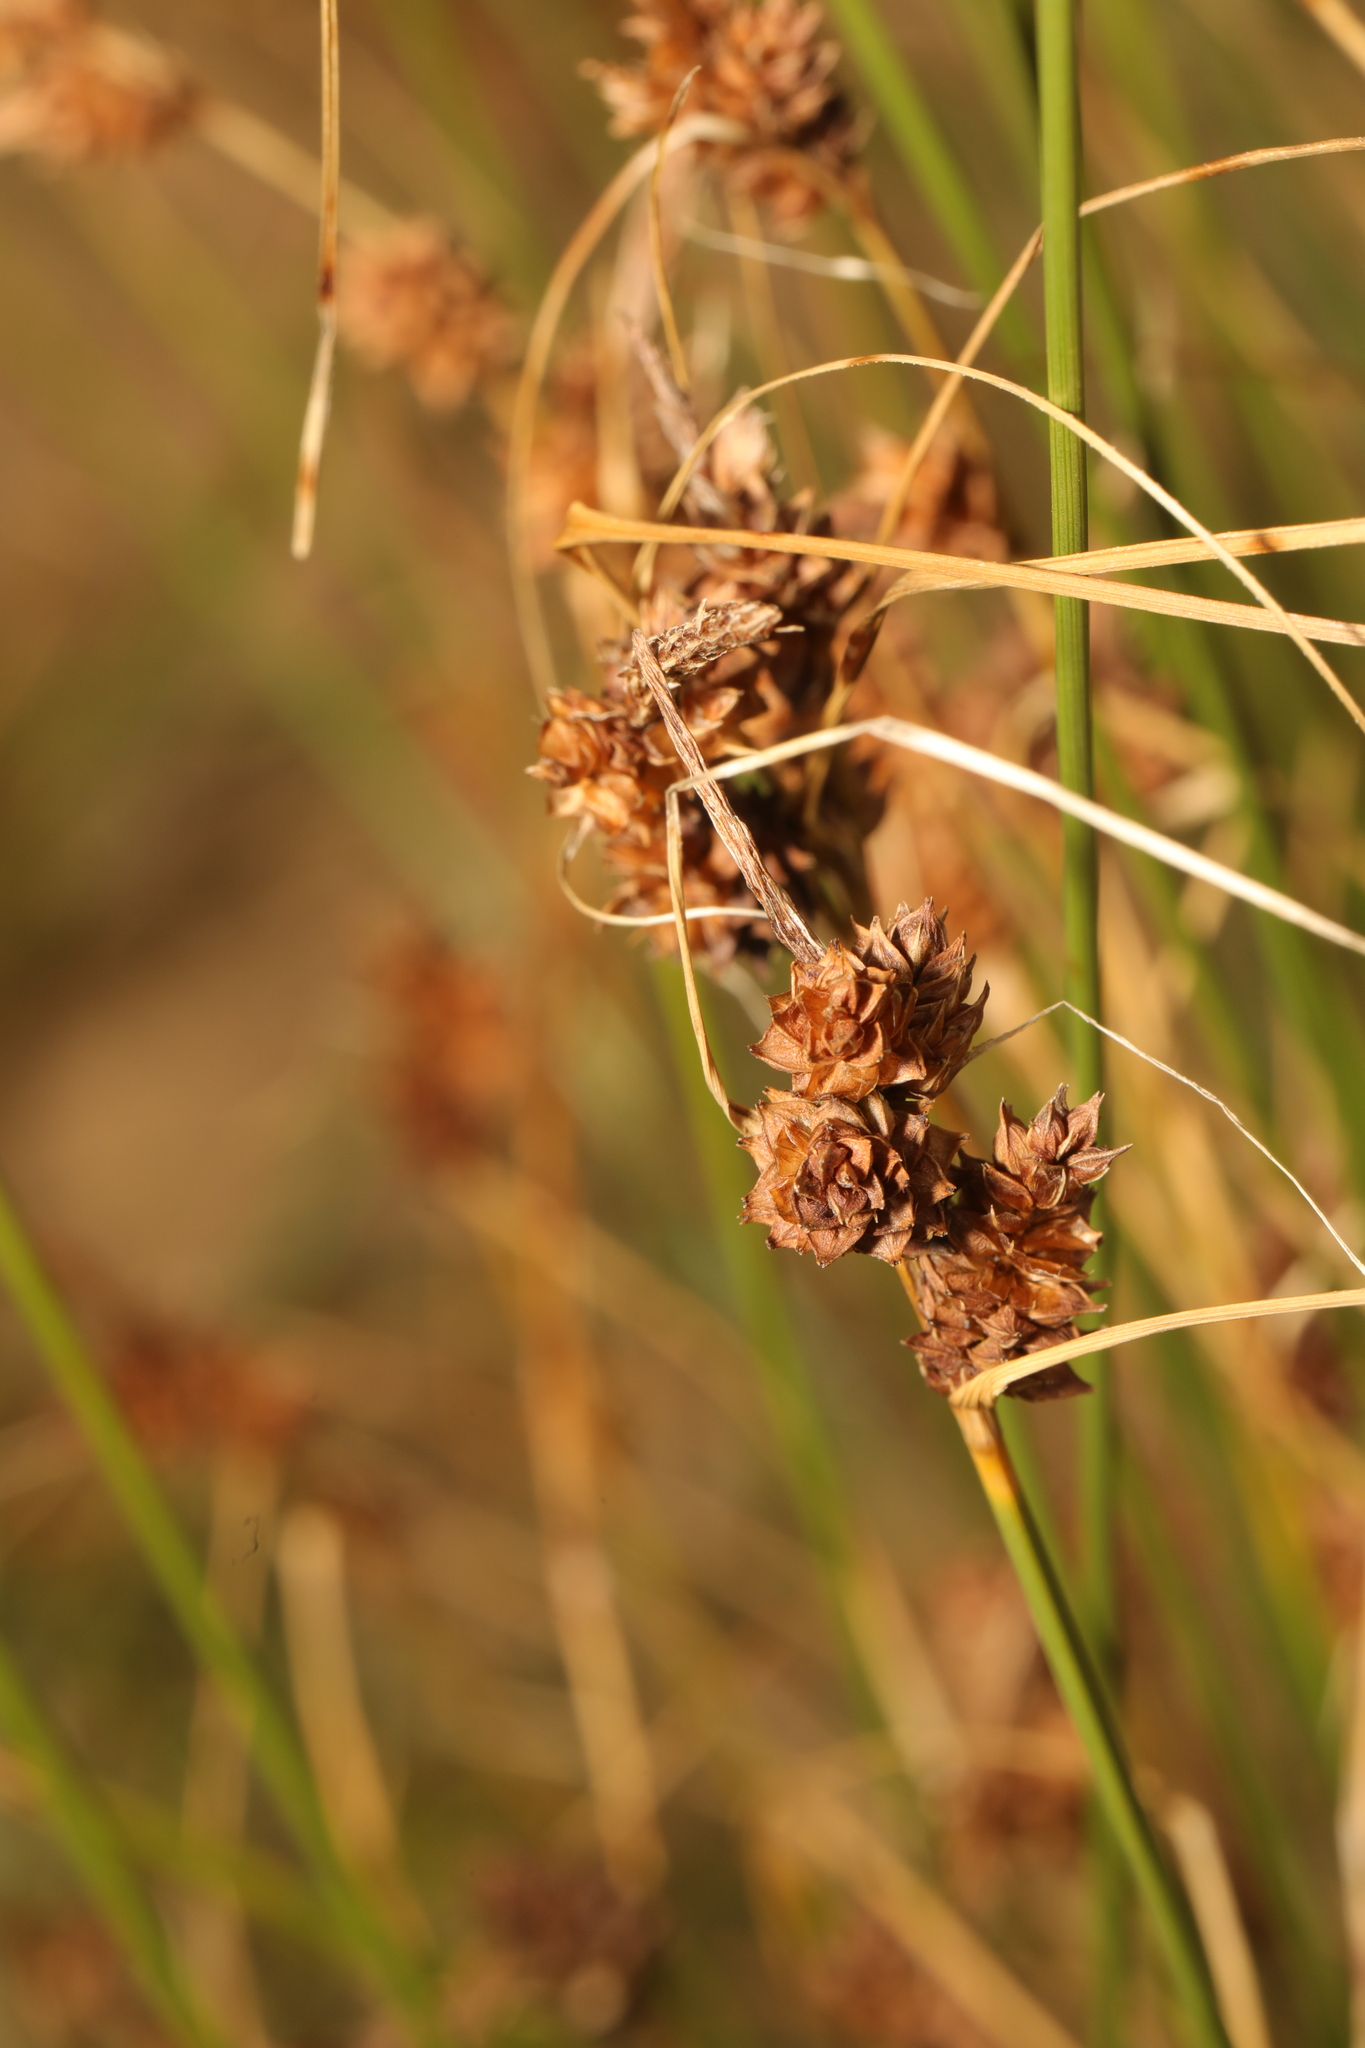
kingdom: Plantae
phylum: Tracheophyta
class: Liliopsida
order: Poales
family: Cyperaceae
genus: Carex
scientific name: Carex extensa
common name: Long-bracted sedge
